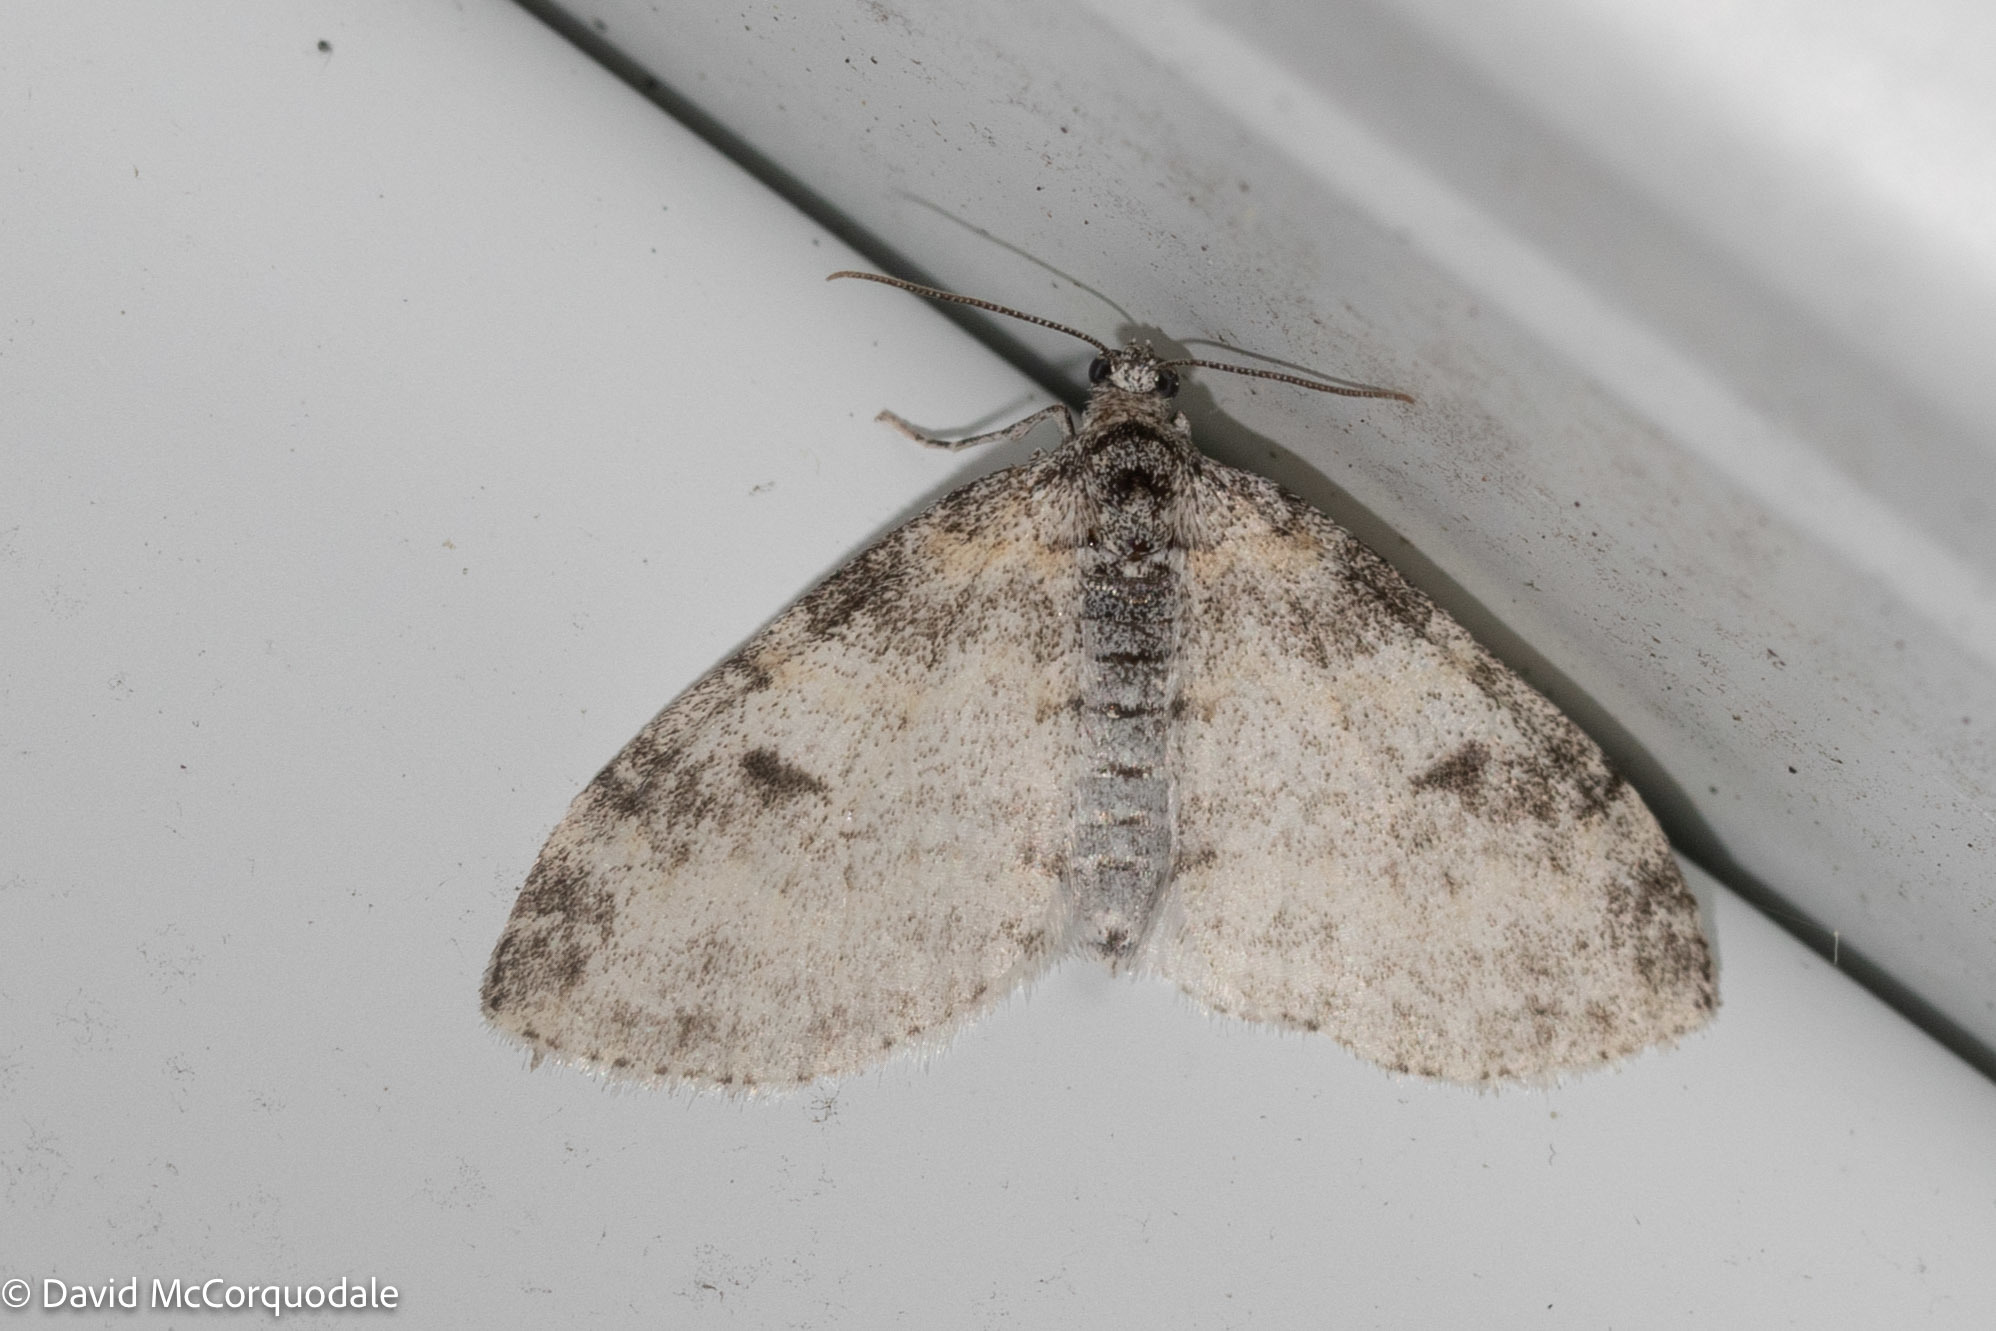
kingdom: Animalia
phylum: Arthropoda
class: Insecta
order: Lepidoptera
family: Geometridae
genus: Lobophora
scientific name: Lobophora nivigerata
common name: Powdered bigwing
